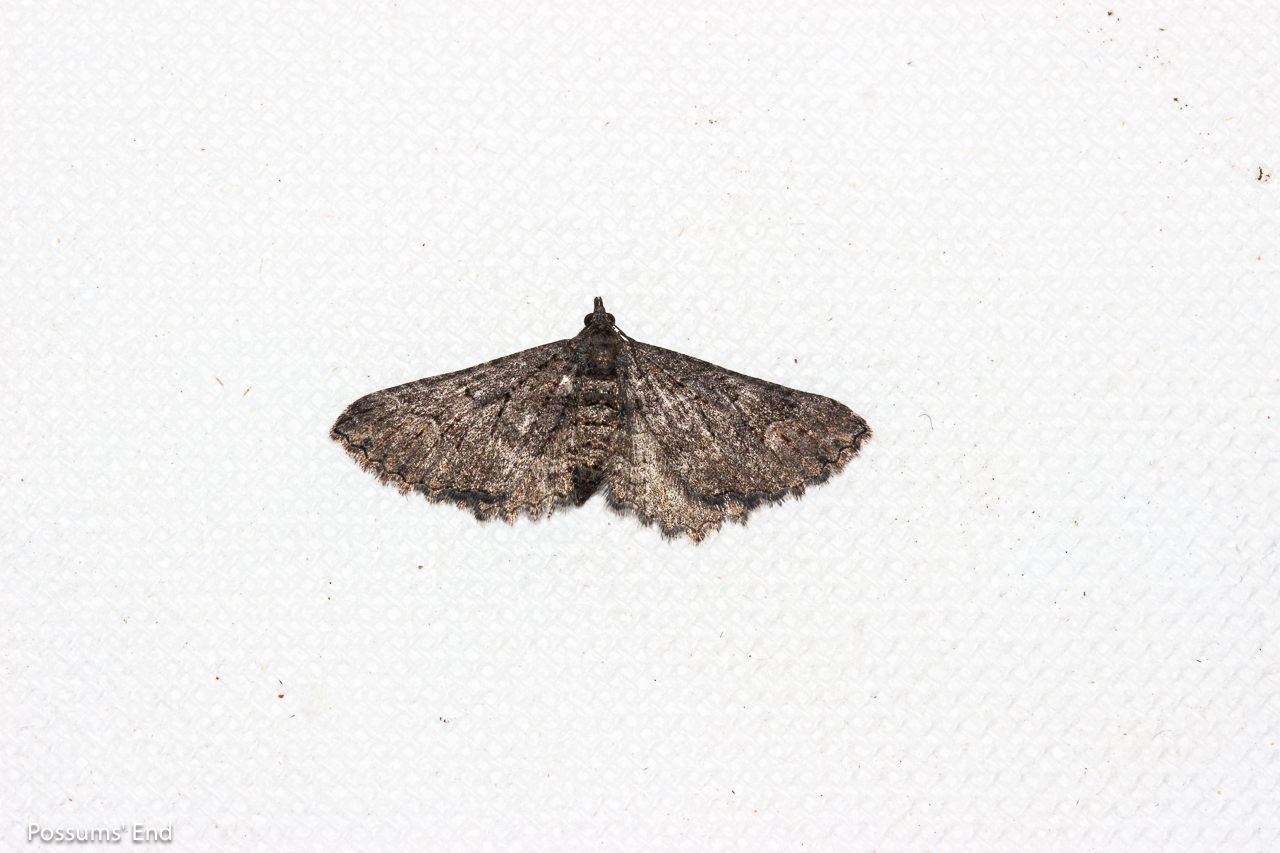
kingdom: Animalia
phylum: Arthropoda
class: Insecta
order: Lepidoptera
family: Geometridae
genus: Horisme
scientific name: Horisme suppressaria
